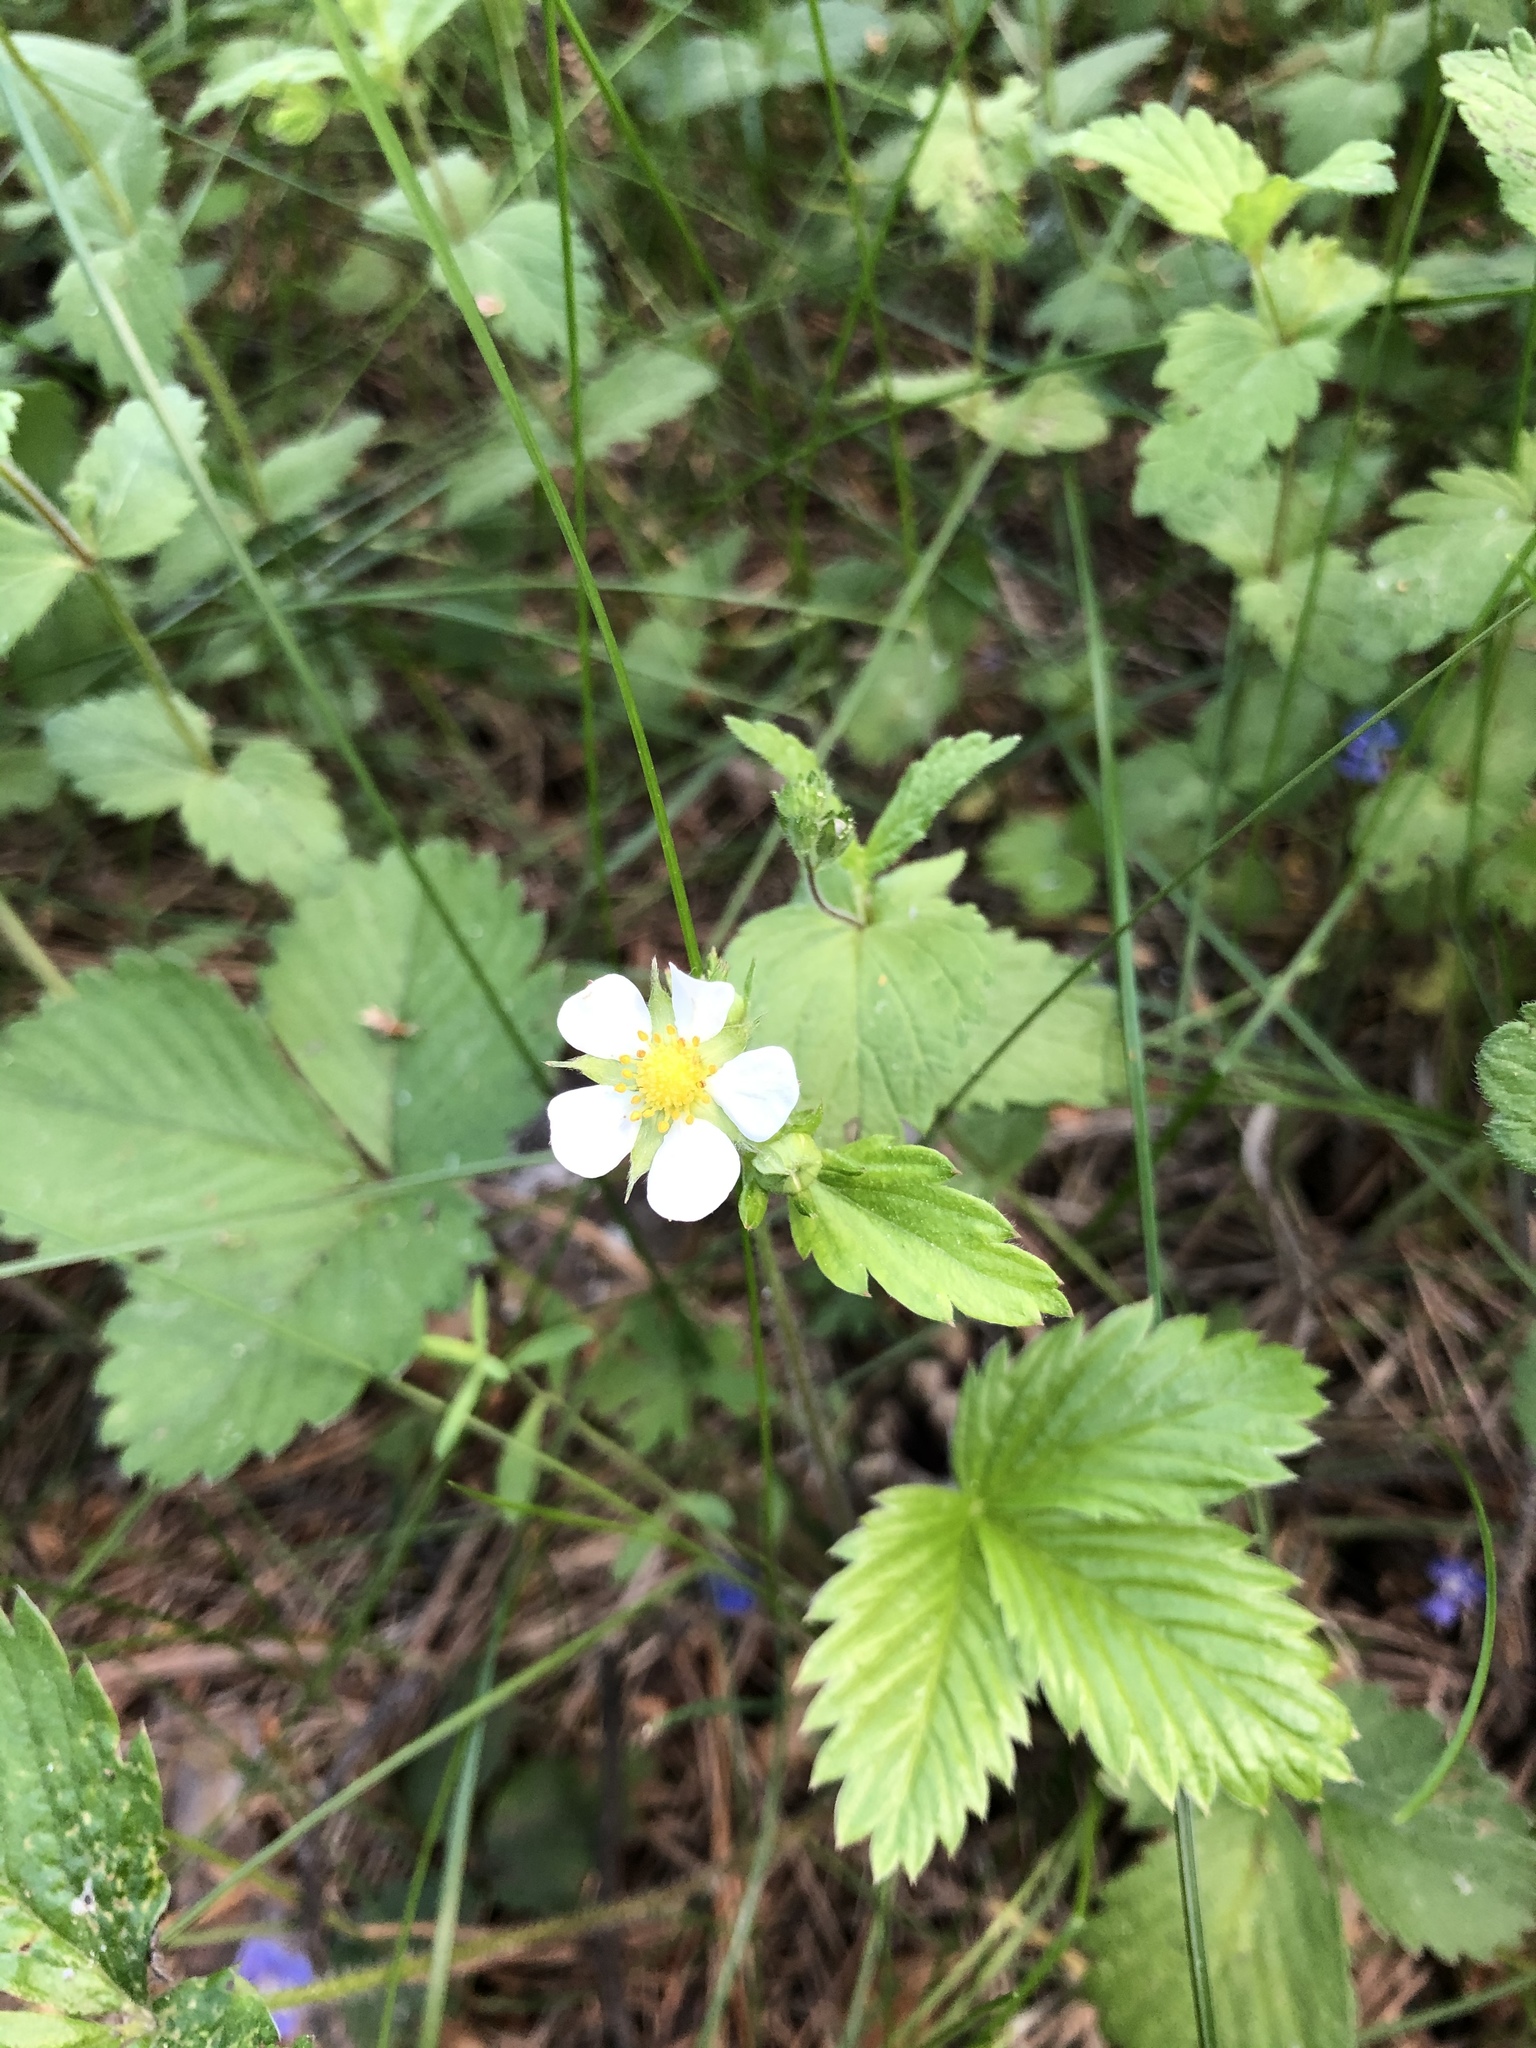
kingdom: Plantae
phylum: Tracheophyta
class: Magnoliopsida
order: Rosales
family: Rosaceae
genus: Fragaria
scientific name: Fragaria vesca
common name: Wild strawberry
